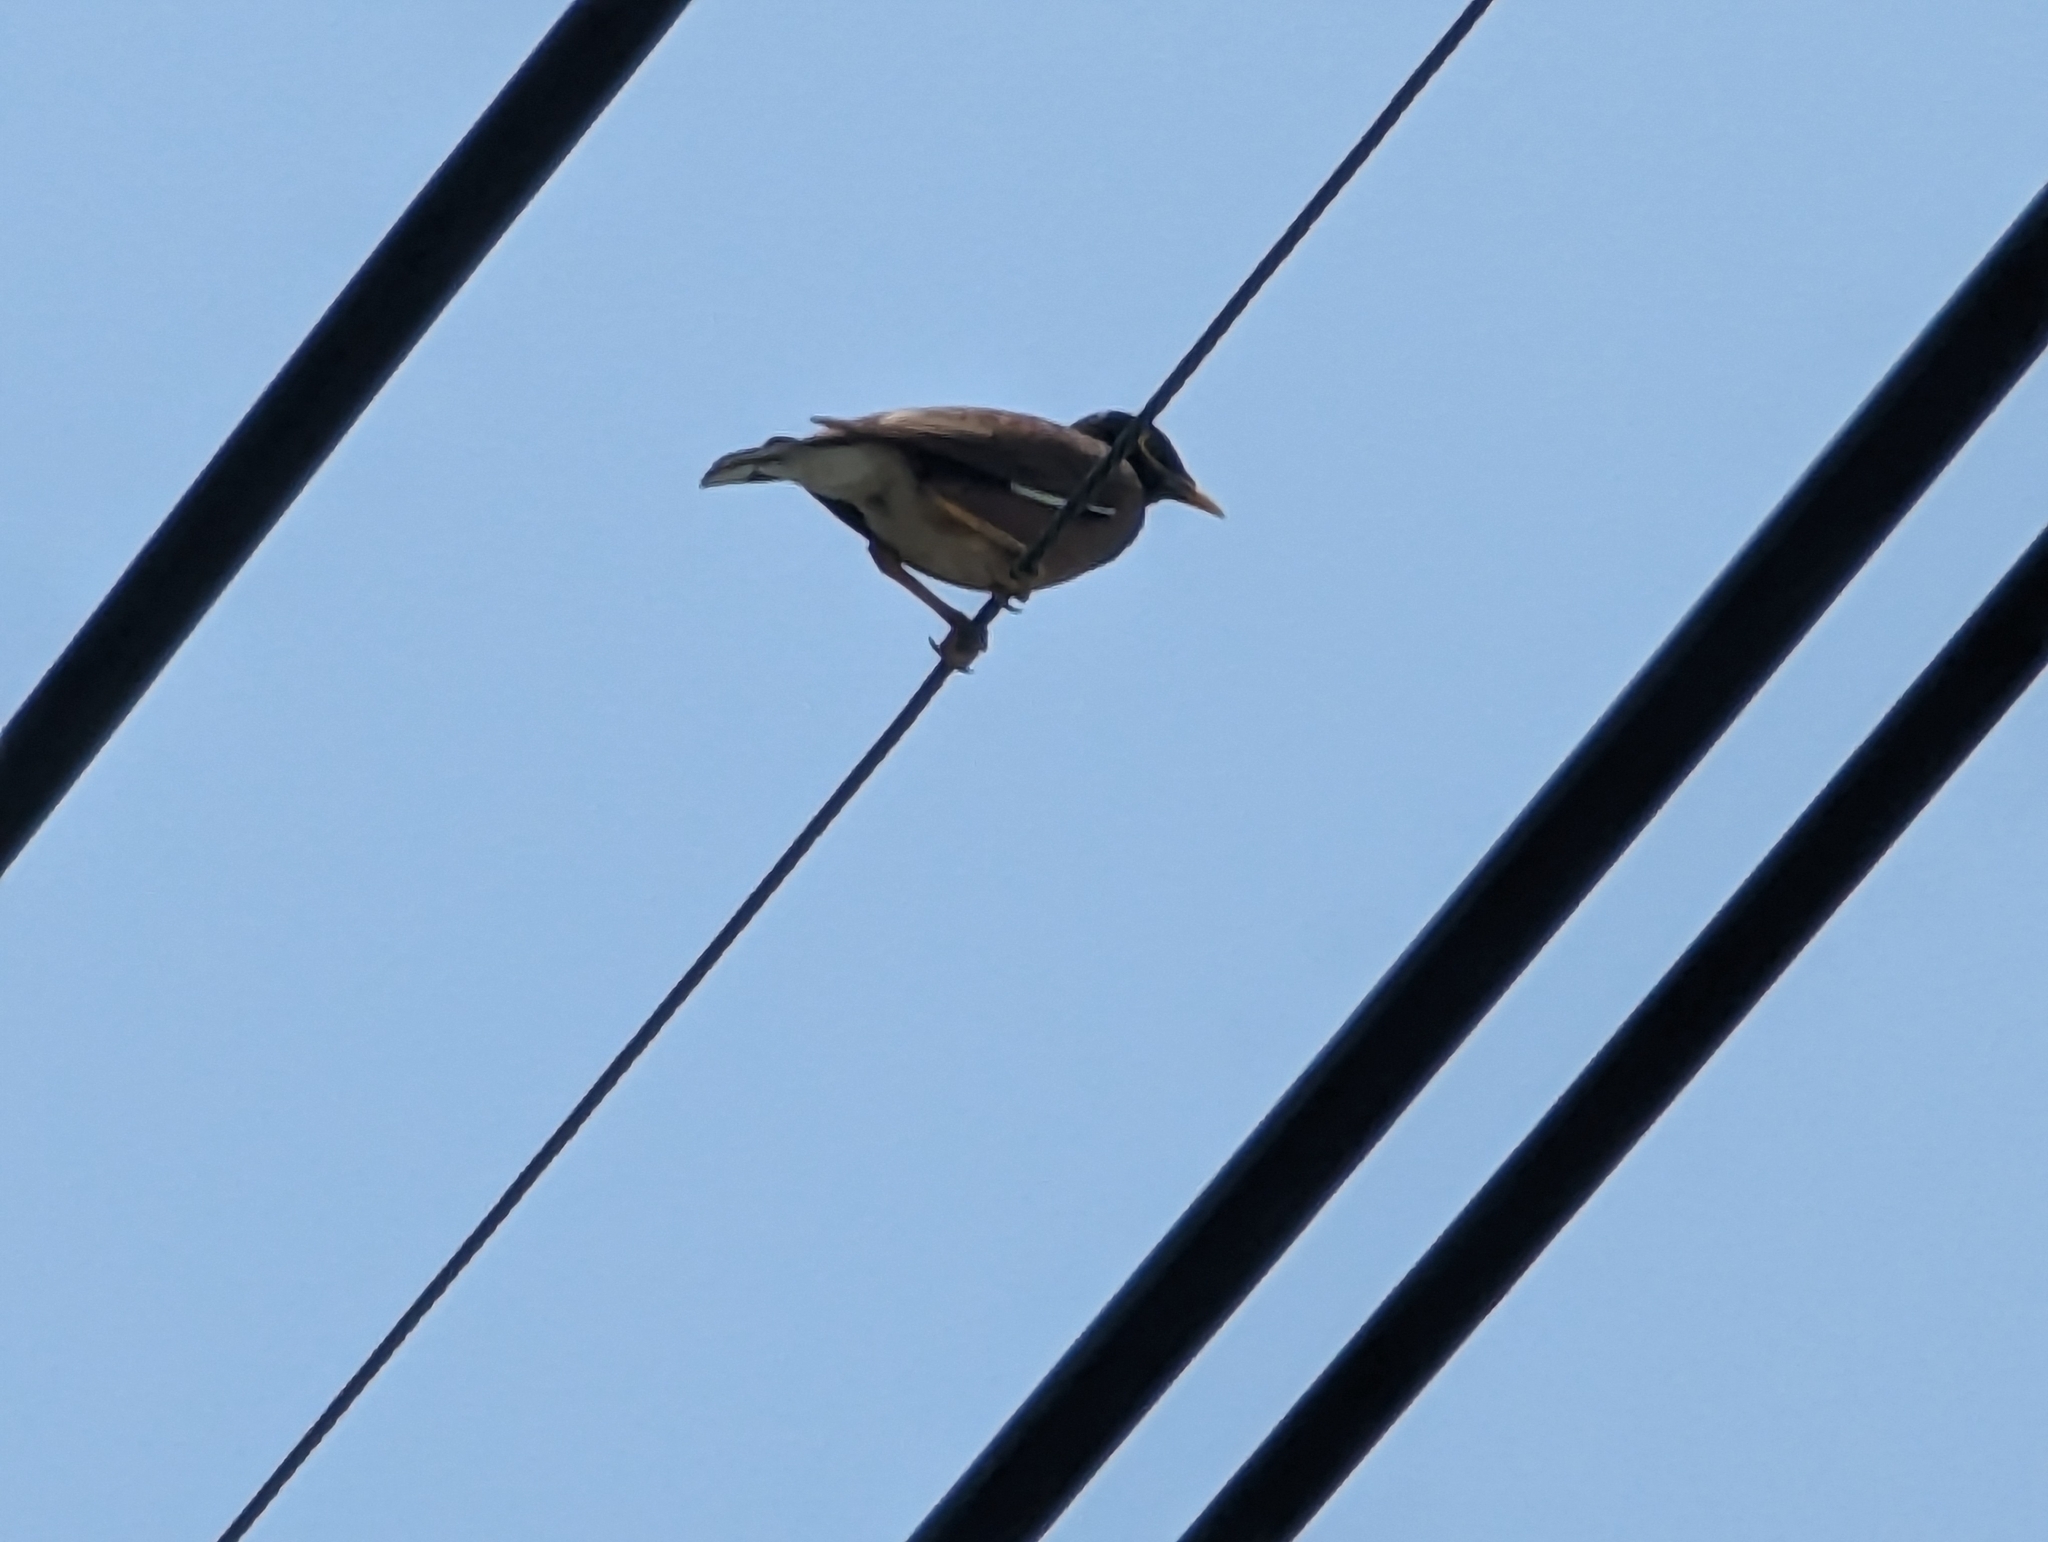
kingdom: Animalia
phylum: Chordata
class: Aves
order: Passeriformes
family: Sturnidae
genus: Acridotheres
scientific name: Acridotheres tristis
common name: Common myna
